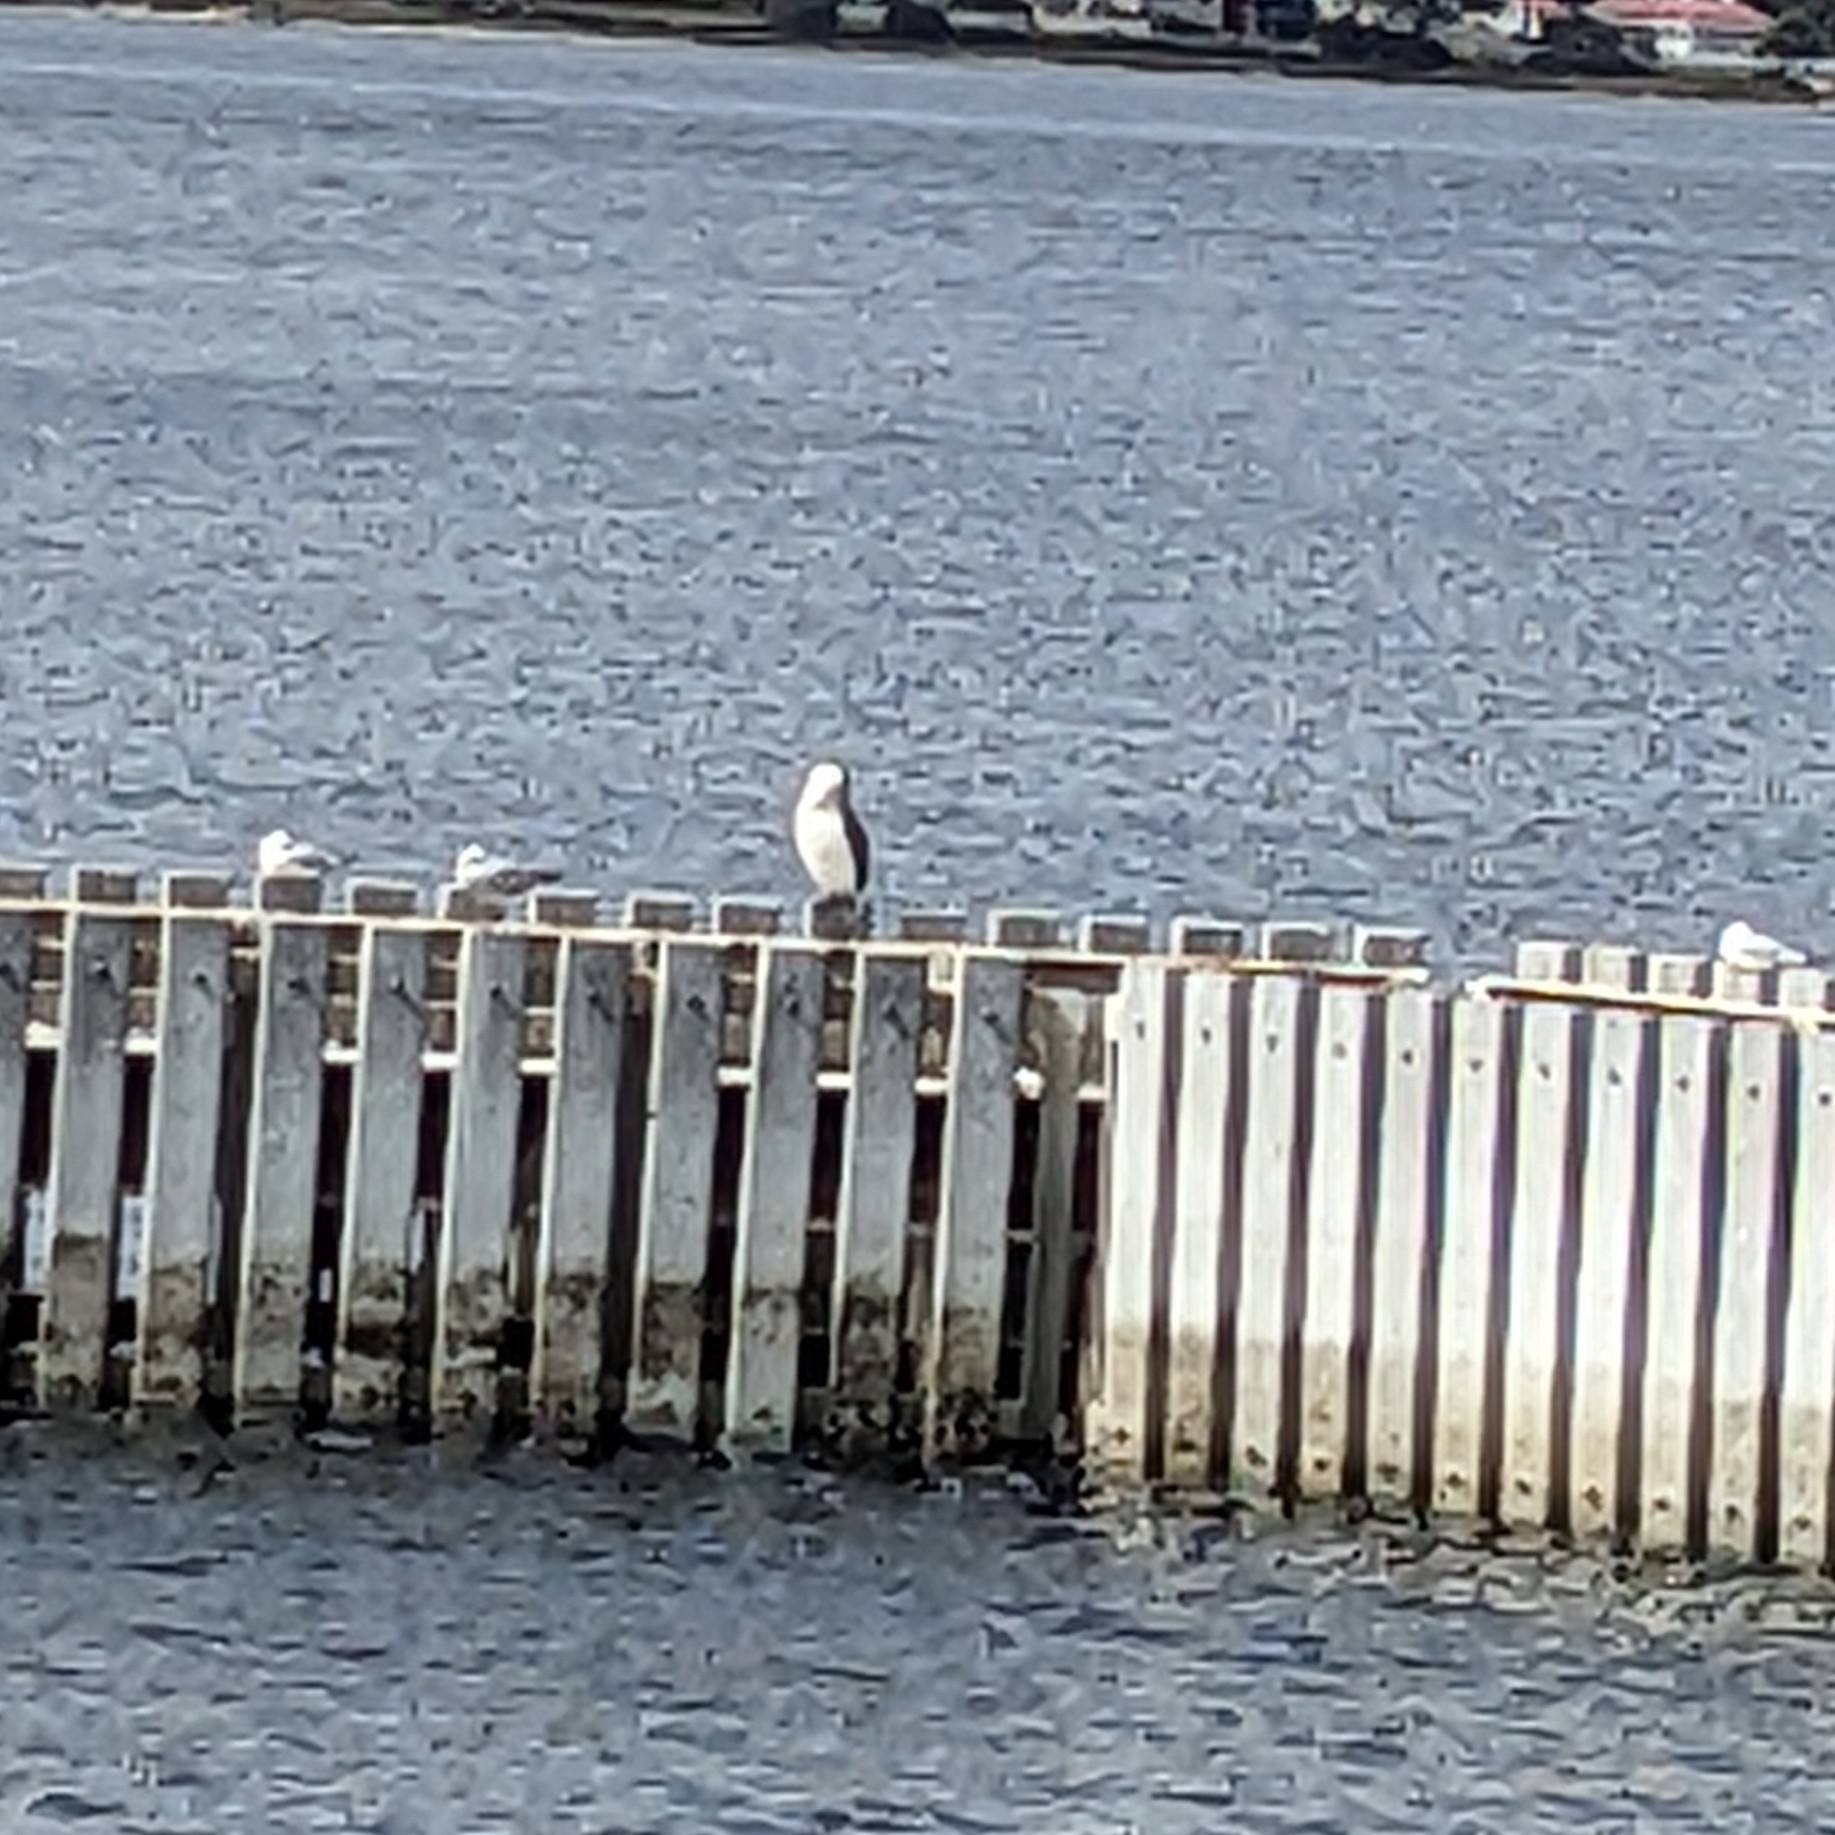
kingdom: Animalia
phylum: Chordata
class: Aves
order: Suliformes
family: Phalacrocoracidae
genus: Phalacrocorax
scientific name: Phalacrocorax fuscescens
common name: Black-faced cormorant
